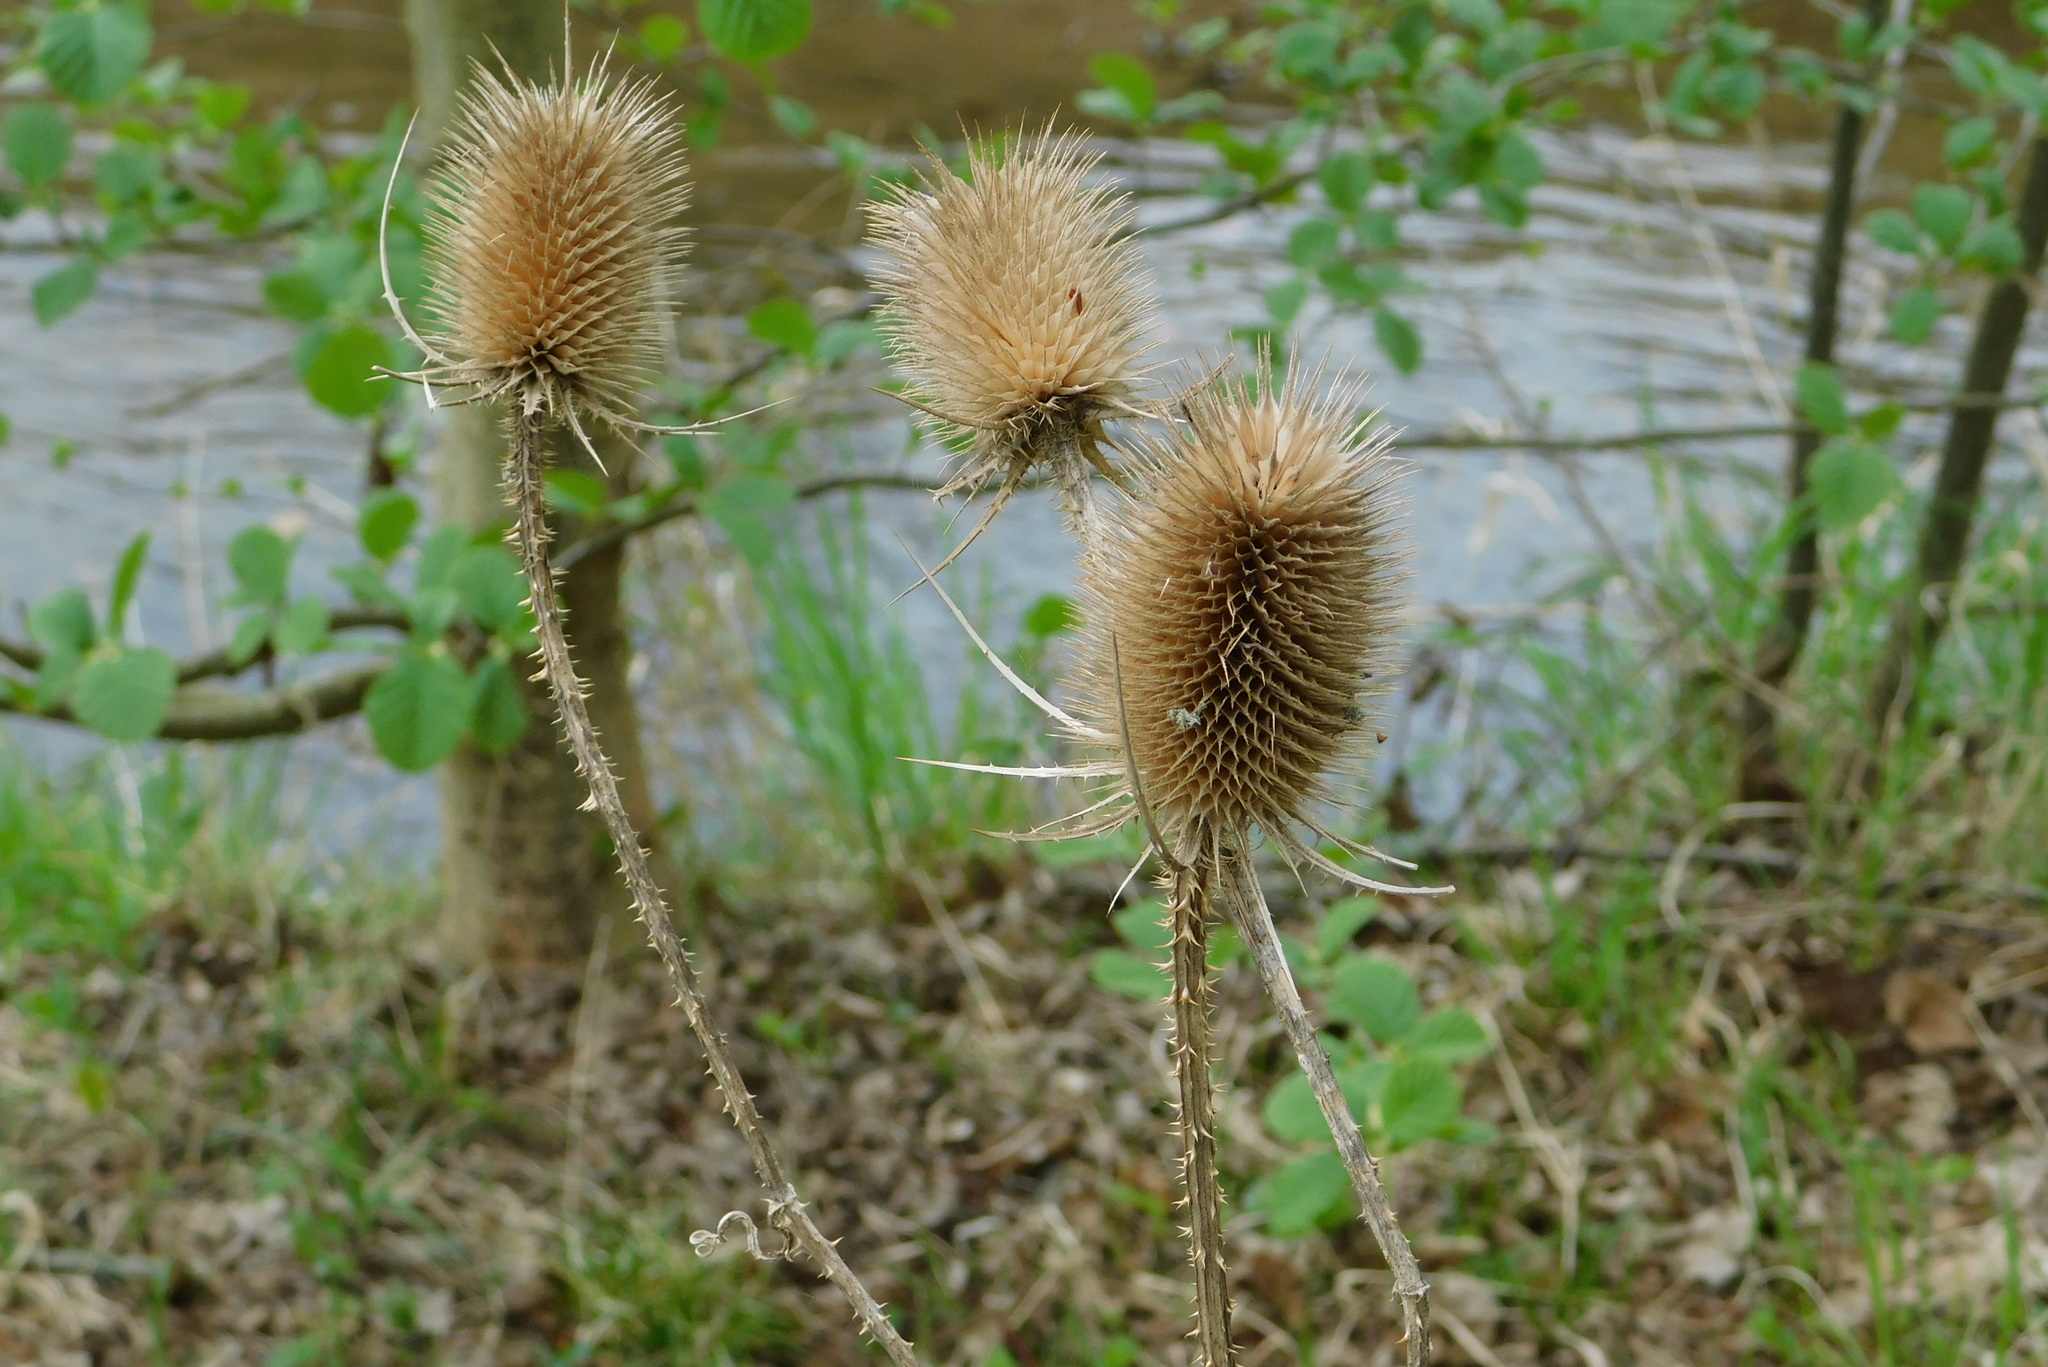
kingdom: Plantae
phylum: Tracheophyta
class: Magnoliopsida
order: Dipsacales
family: Caprifoliaceae
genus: Dipsacus
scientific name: Dipsacus fullonum
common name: Teasel
